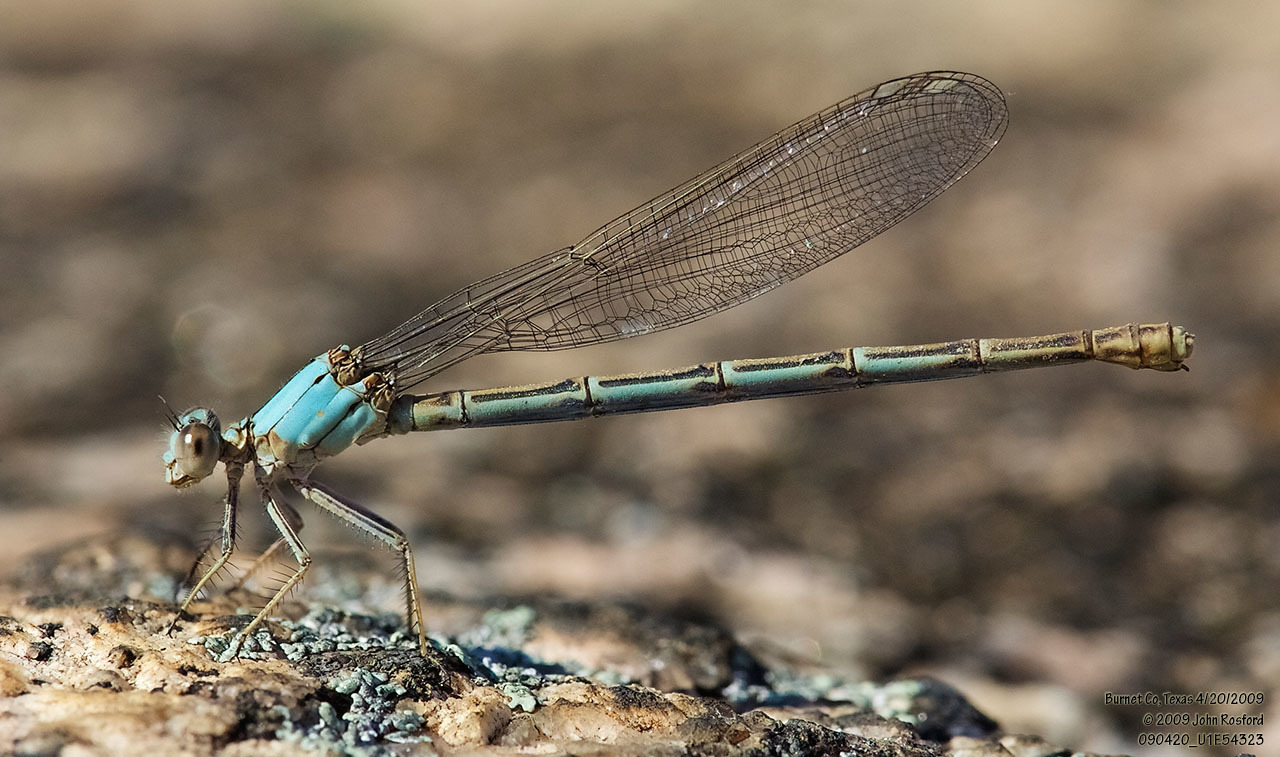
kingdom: Animalia
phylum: Arthropoda
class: Insecta
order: Odonata
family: Coenagrionidae
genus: Argia
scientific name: Argia moesta
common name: Powdered dancer
